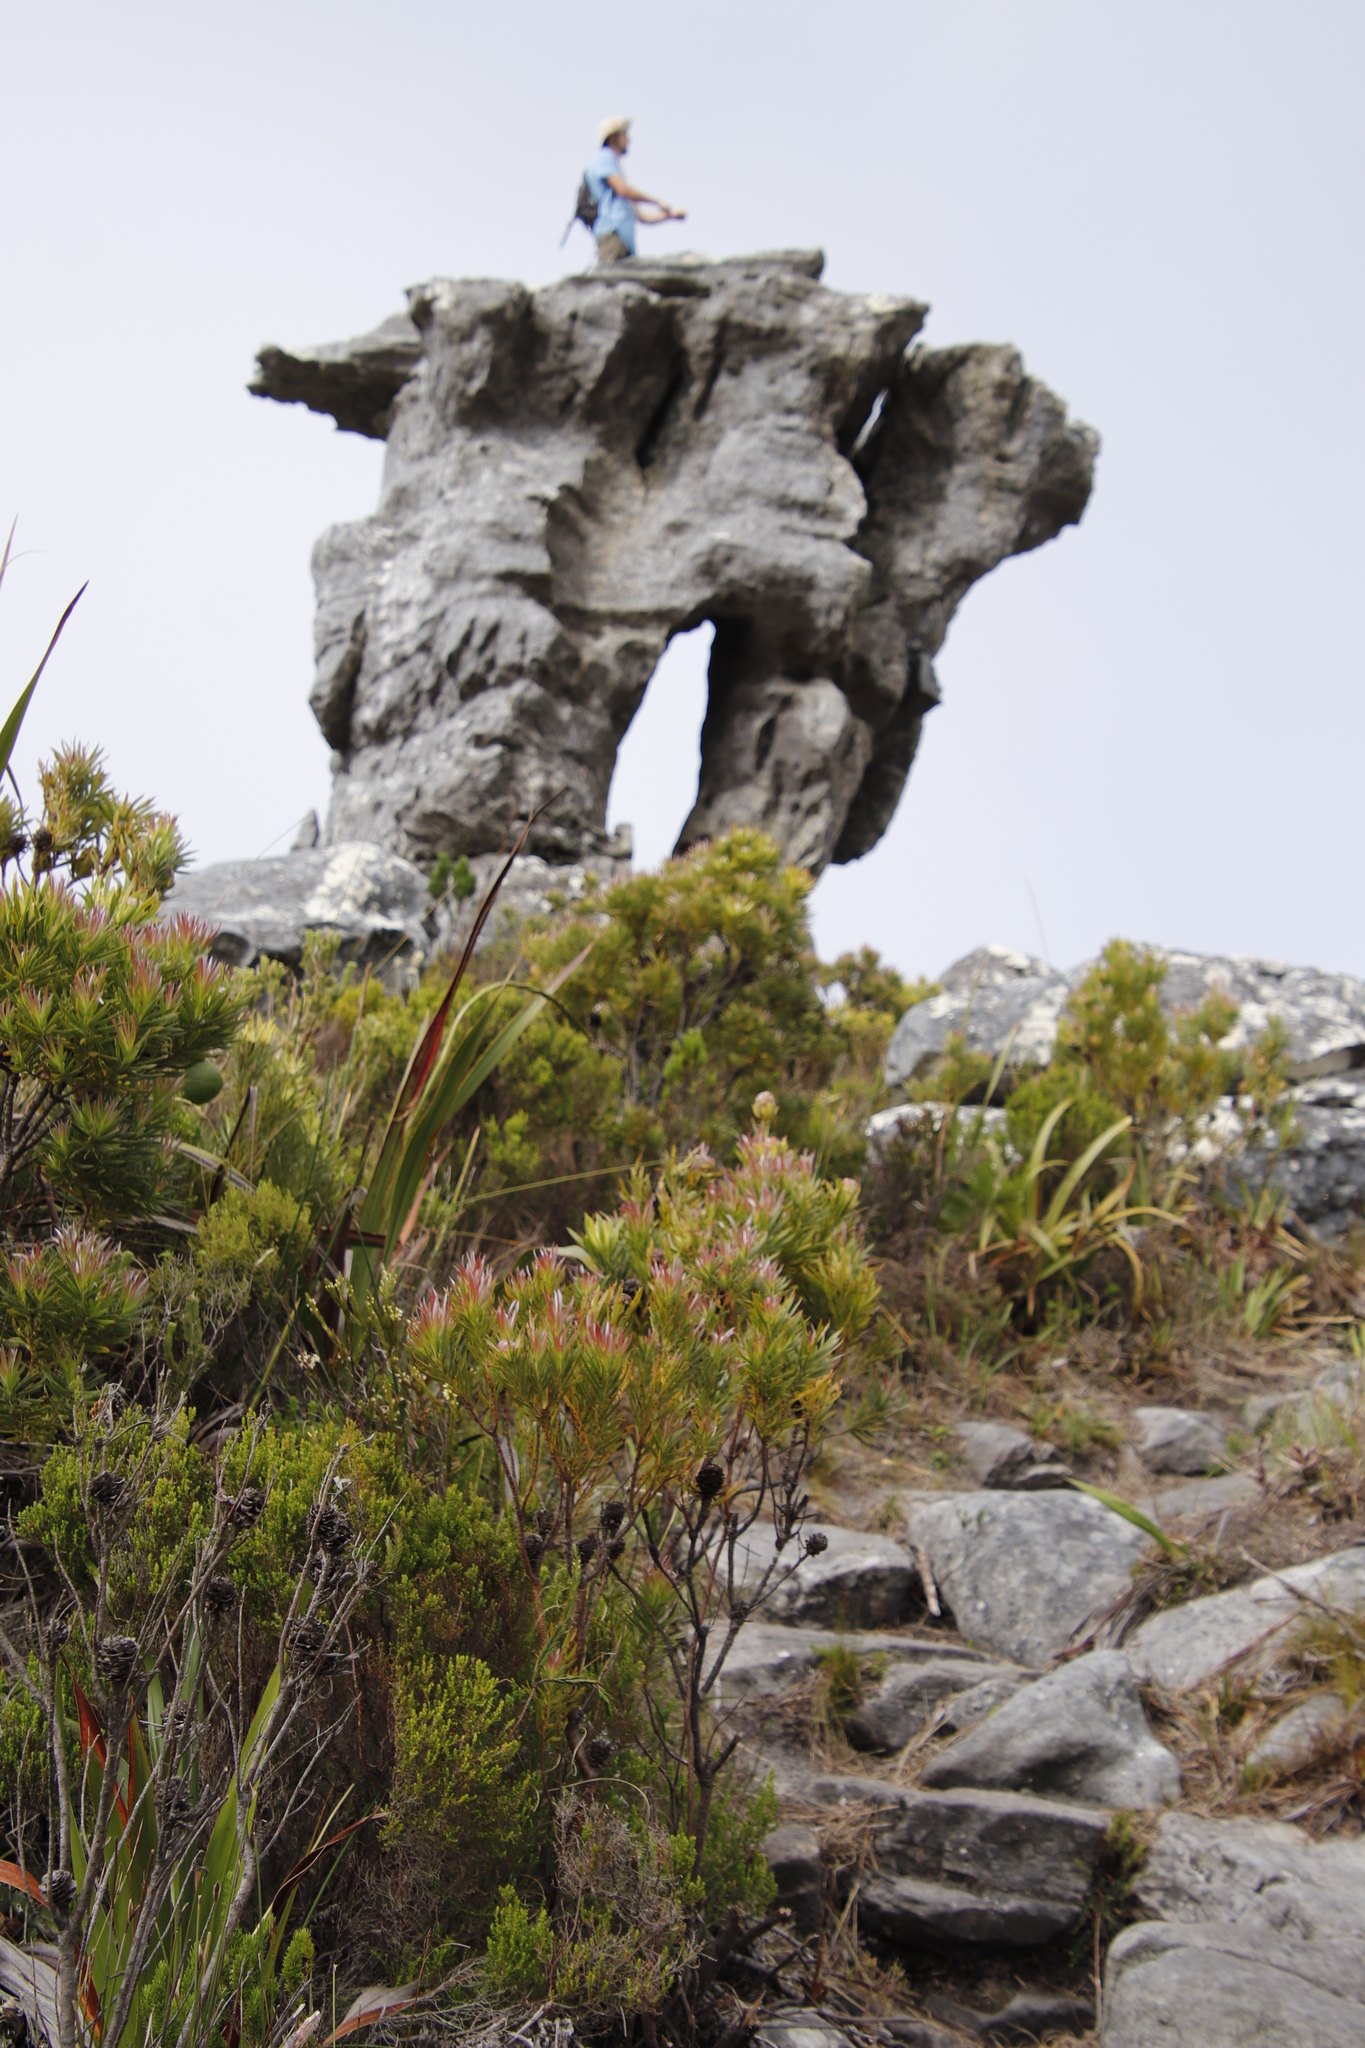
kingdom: Plantae
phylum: Tracheophyta
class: Magnoliopsida
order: Proteales
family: Proteaceae
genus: Leucadendron
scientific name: Leucadendron xanthoconus
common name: Sickle-leaf conebush
